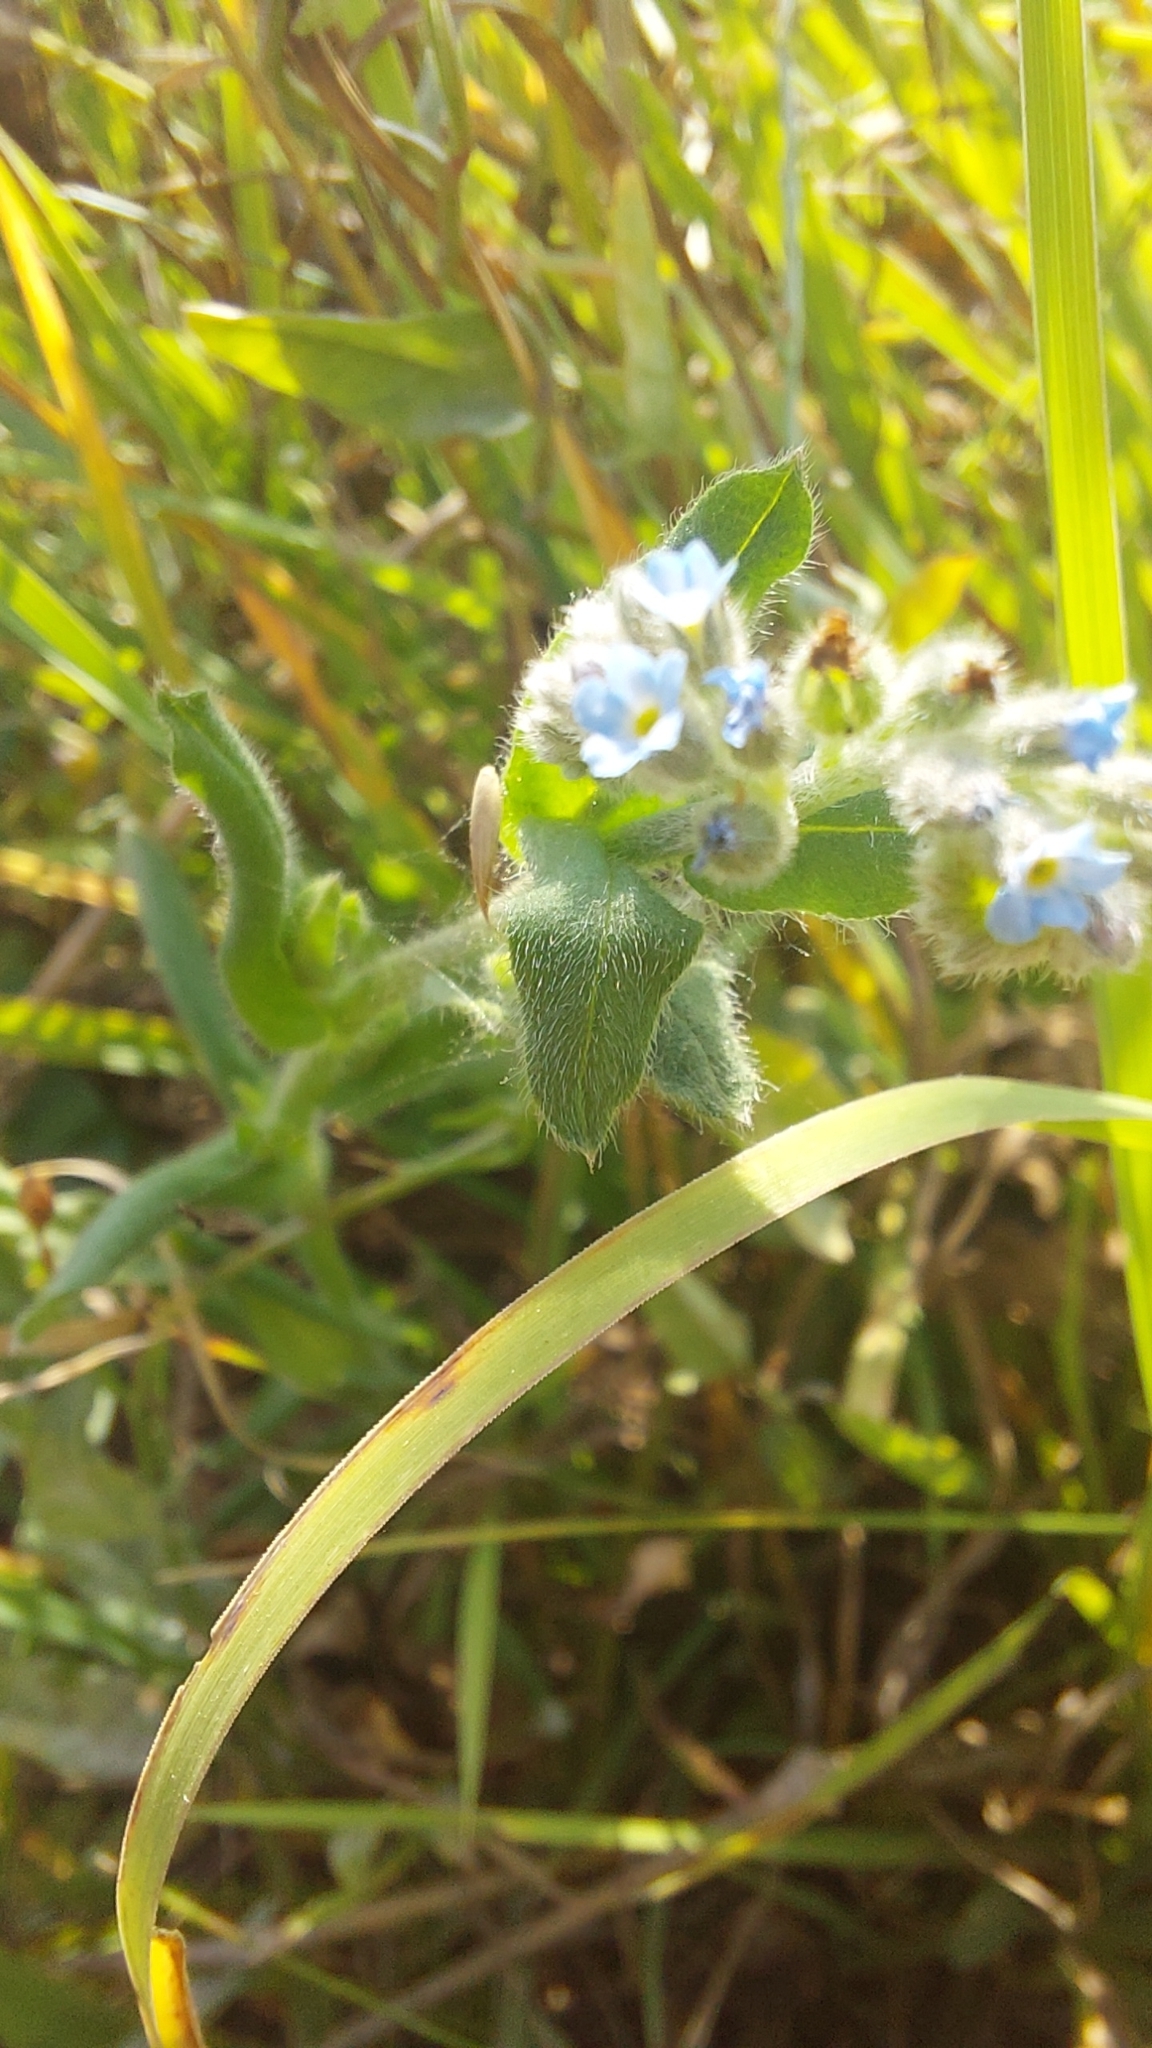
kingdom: Plantae
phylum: Tracheophyta
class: Magnoliopsida
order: Boraginales
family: Boraginaceae
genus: Myosotis
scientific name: Myosotis arvensis
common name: Field forget-me-not
